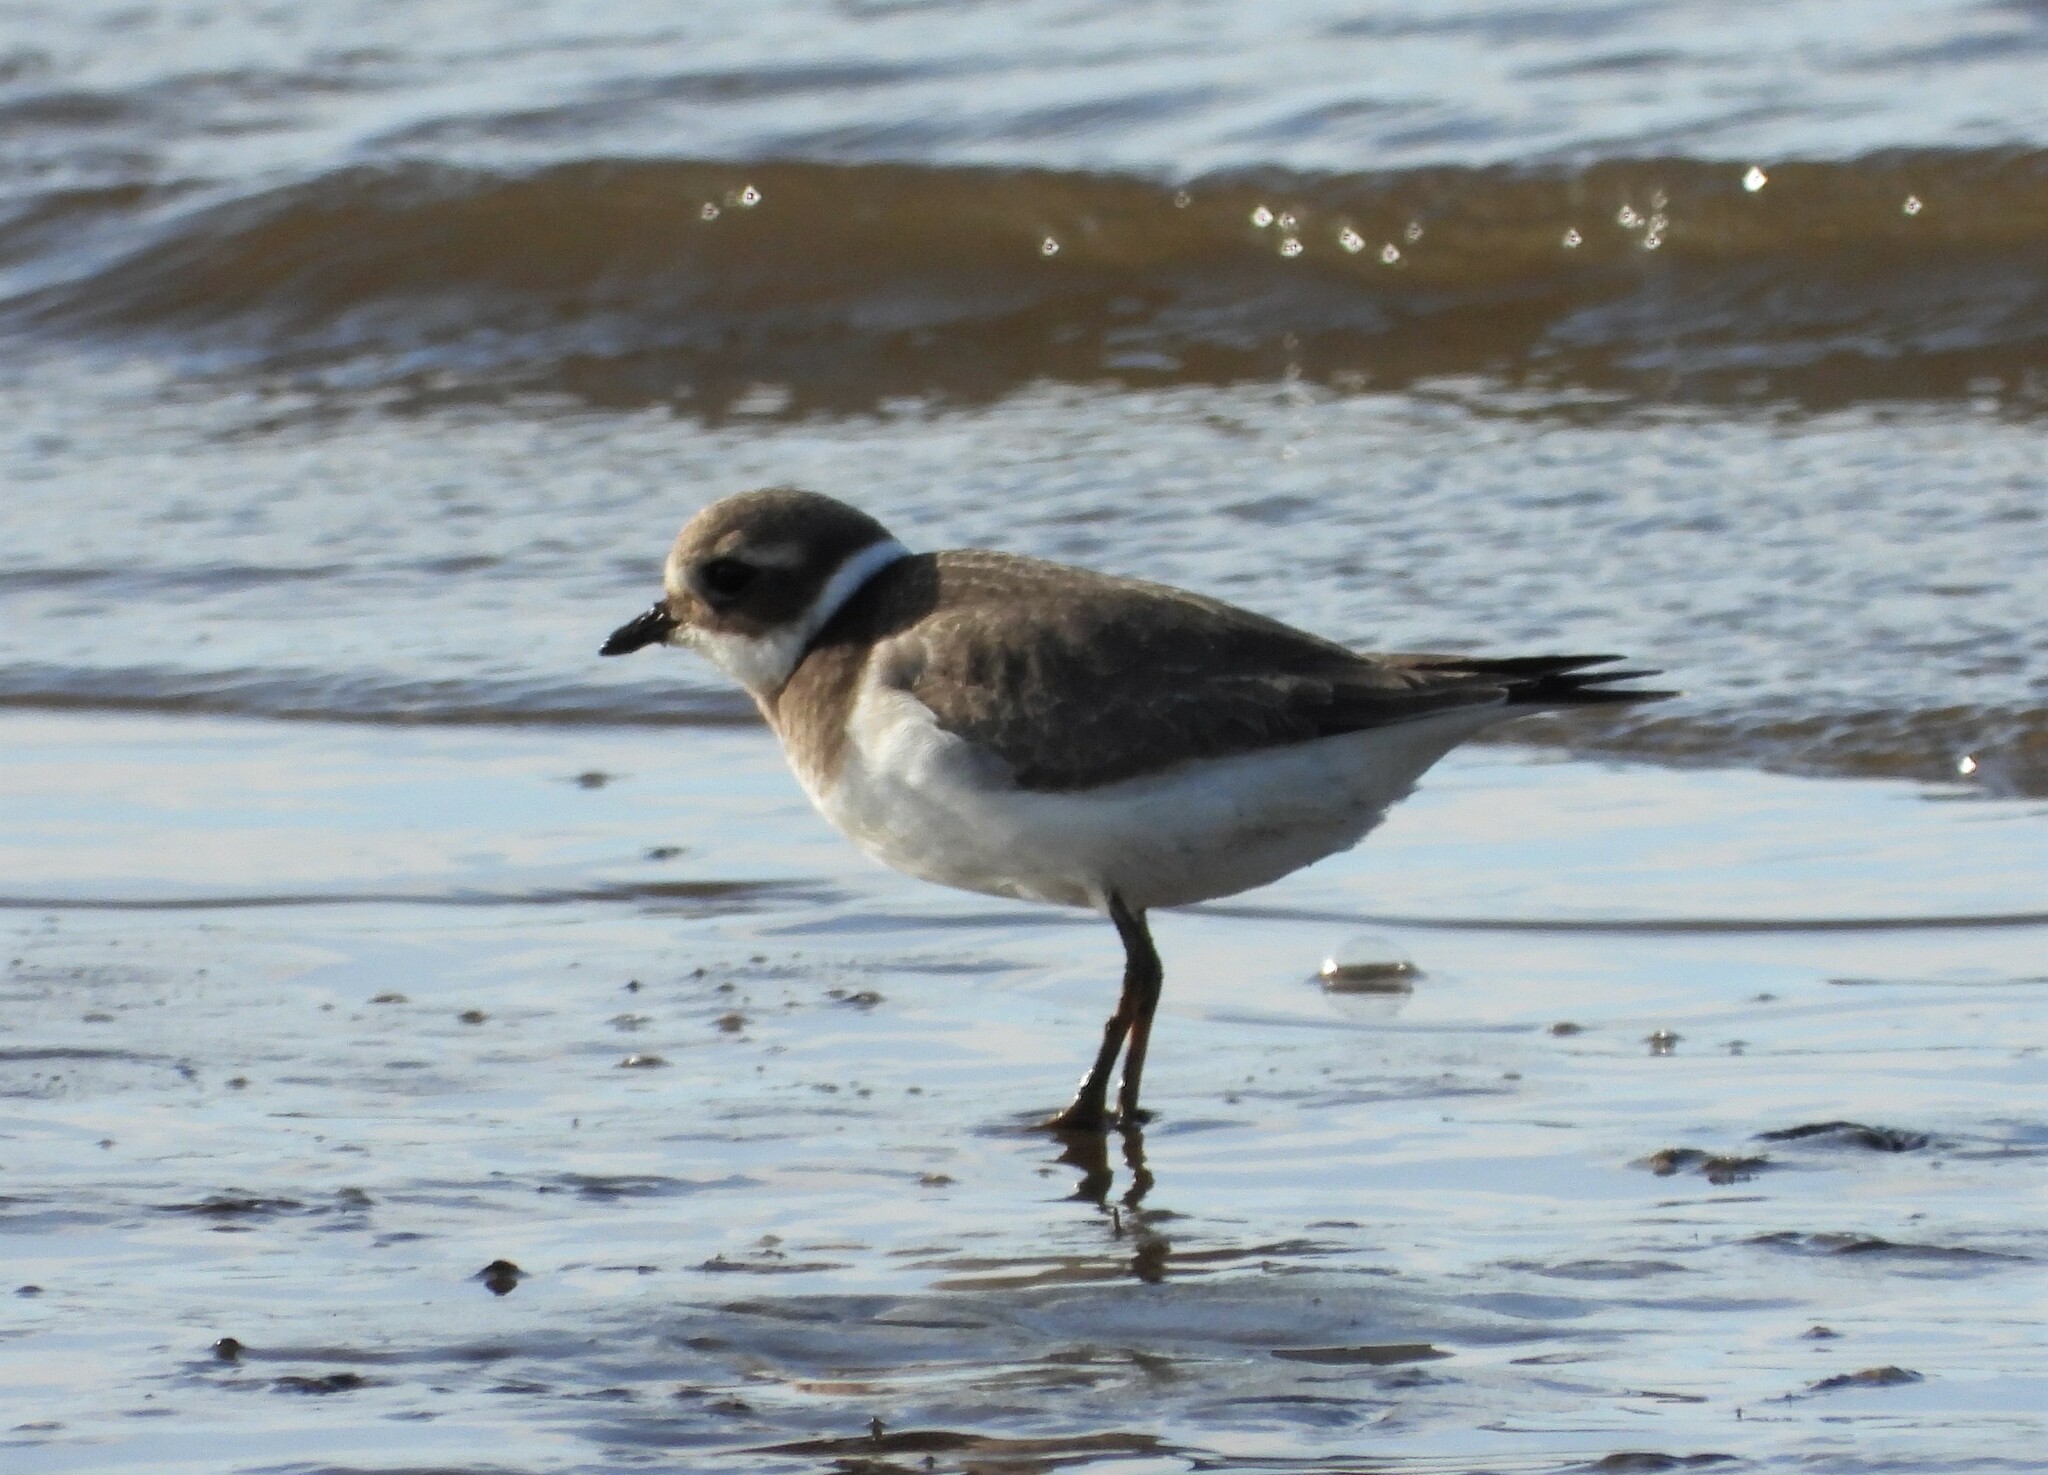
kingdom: Animalia
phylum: Chordata
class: Aves
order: Charadriiformes
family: Charadriidae
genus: Charadrius
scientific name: Charadrius hiaticula
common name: Common ringed plover
